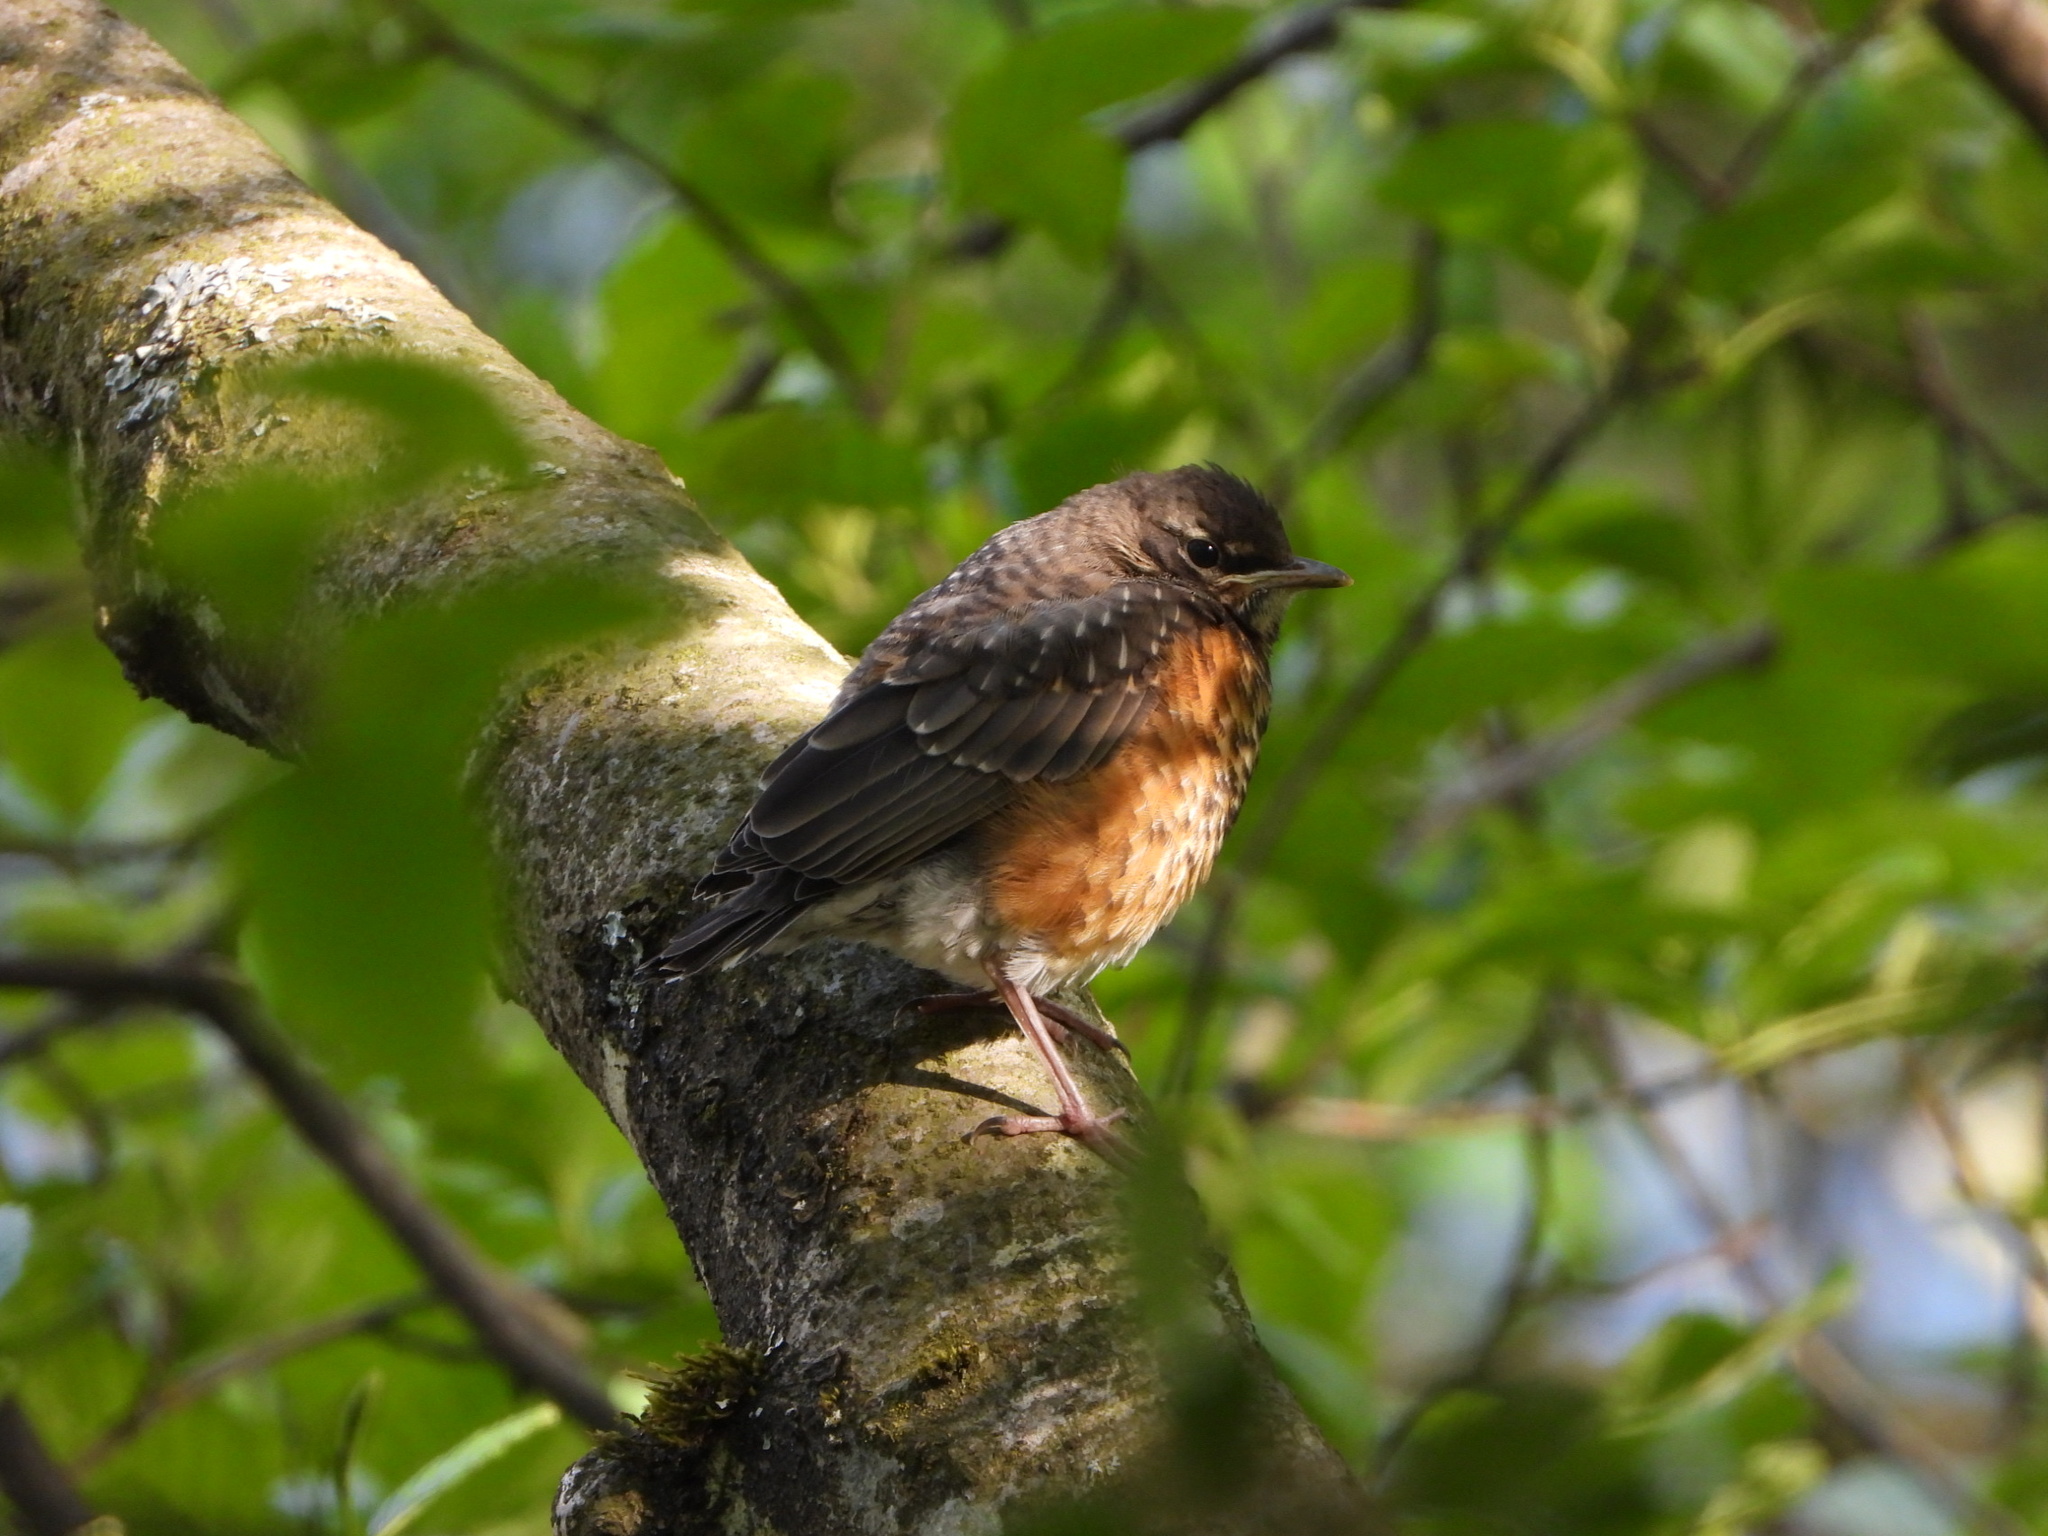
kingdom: Animalia
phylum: Chordata
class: Aves
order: Passeriformes
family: Turdidae
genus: Turdus
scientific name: Turdus migratorius
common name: American robin
